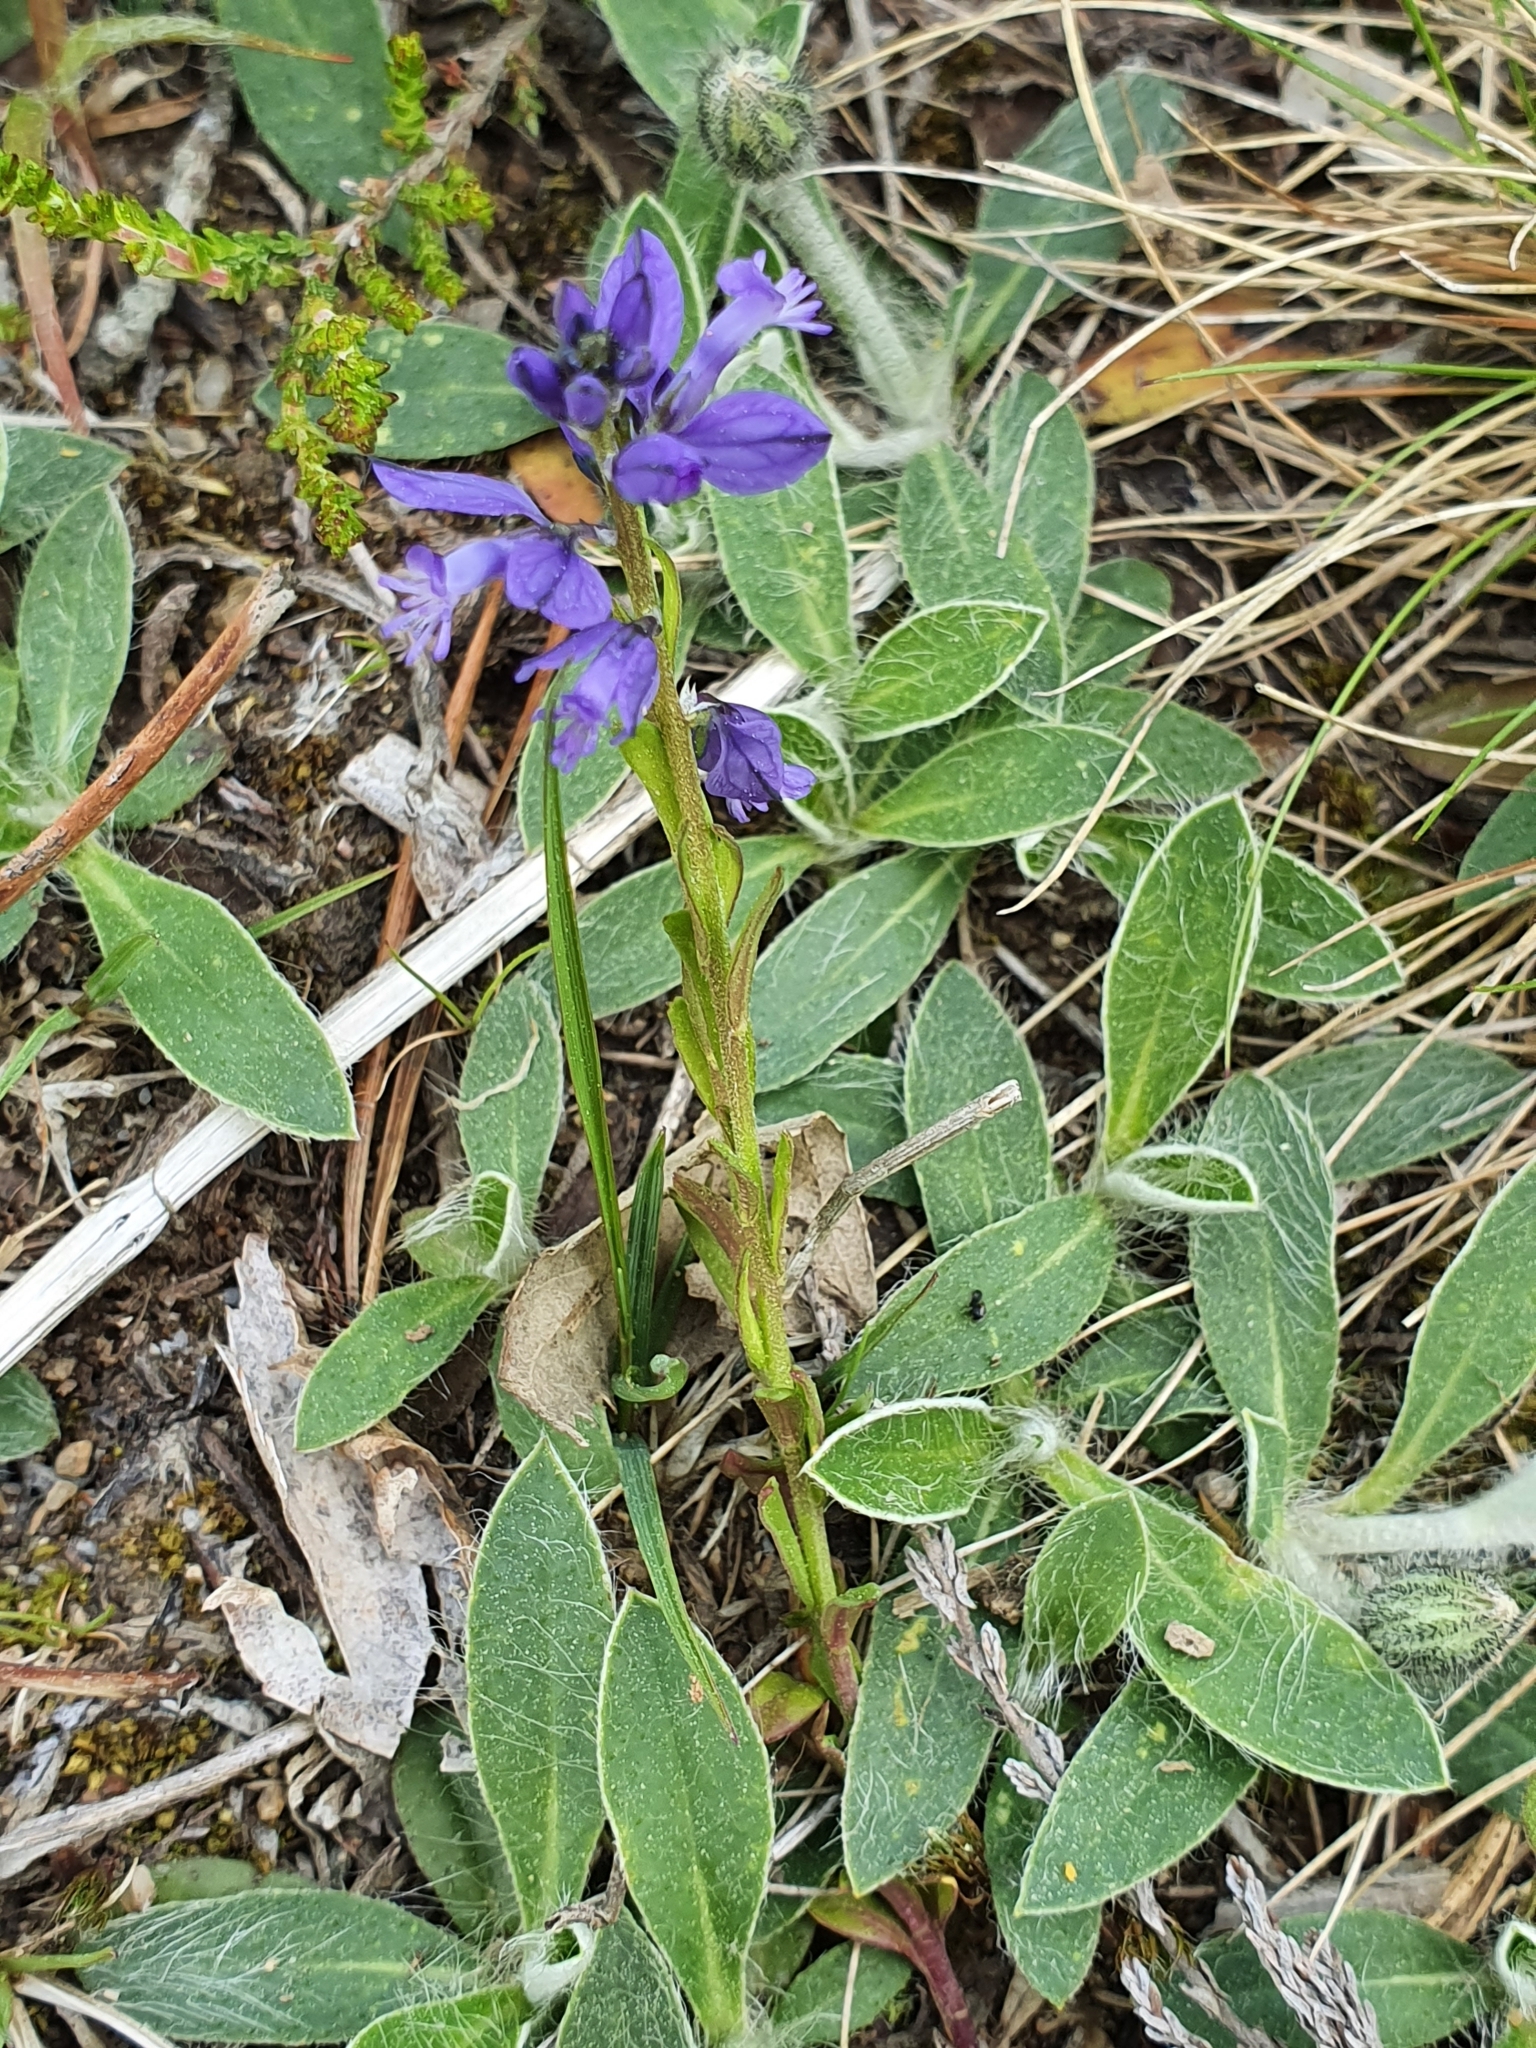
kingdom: Plantae
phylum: Tracheophyta
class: Magnoliopsida
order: Asterales
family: Asteraceae
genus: Pilosella
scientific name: Pilosella officinarum
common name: Mouse-ear hawkweed
